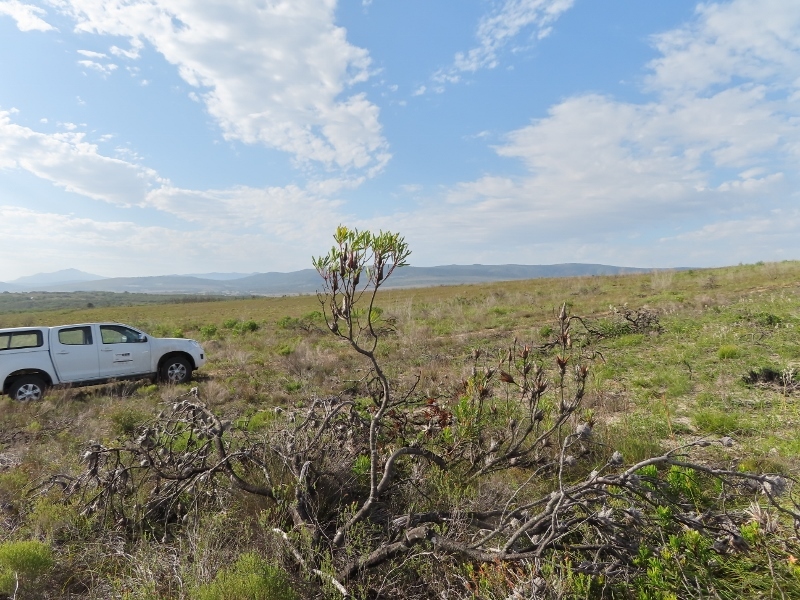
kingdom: Plantae
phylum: Tracheophyta
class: Magnoliopsida
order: Proteales
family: Proteaceae
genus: Protea
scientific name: Protea repens
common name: Sugarbush
